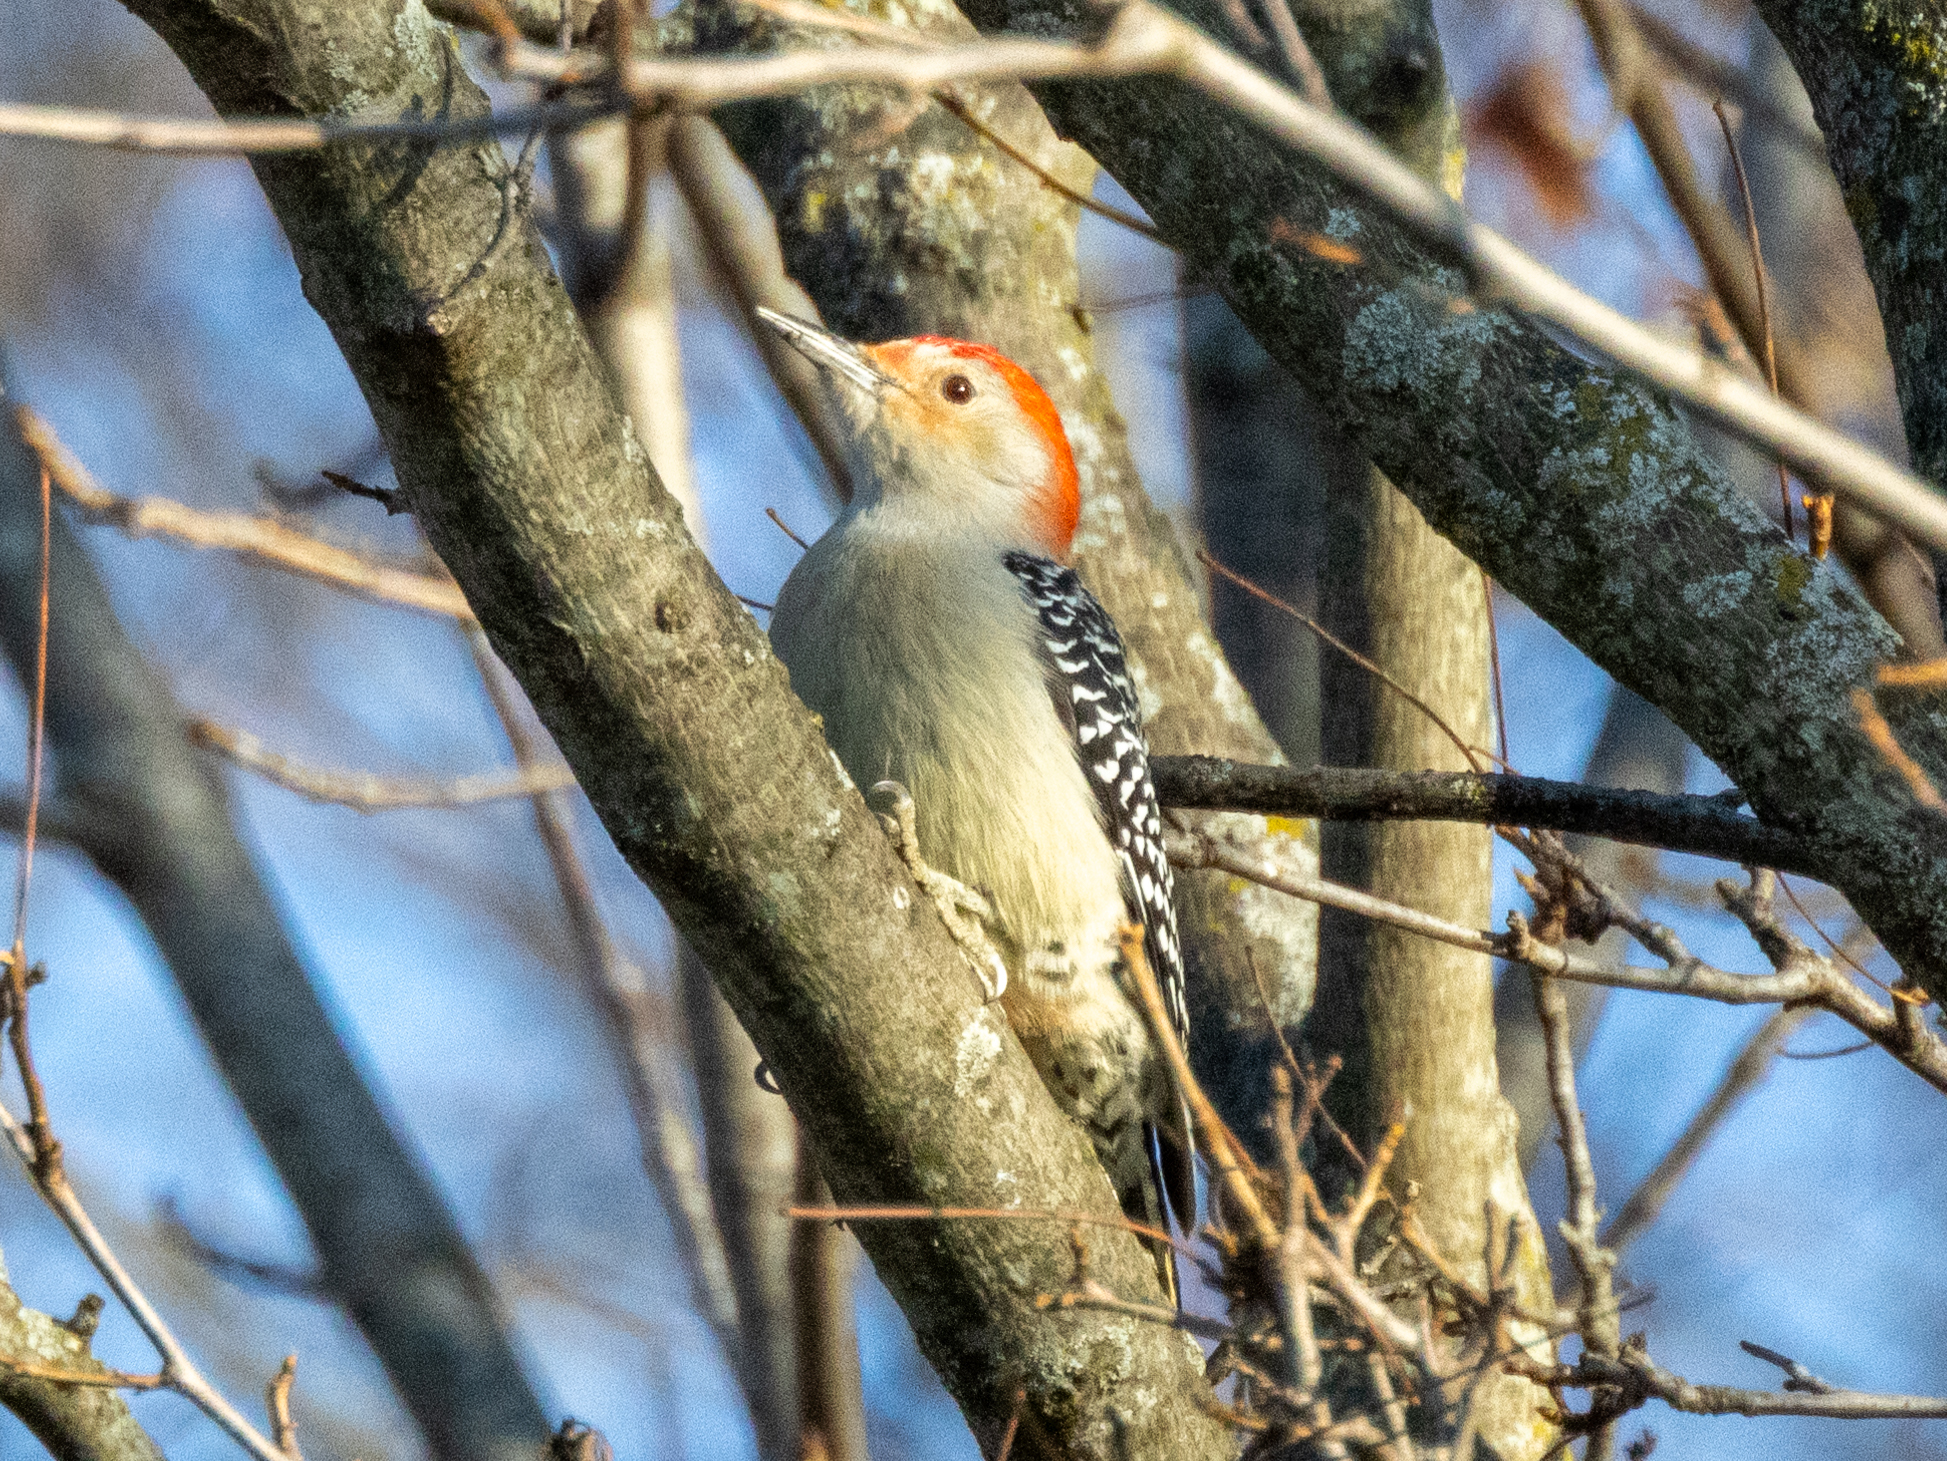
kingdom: Animalia
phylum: Chordata
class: Aves
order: Piciformes
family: Picidae
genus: Melanerpes
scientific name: Melanerpes carolinus
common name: Red-bellied woodpecker
